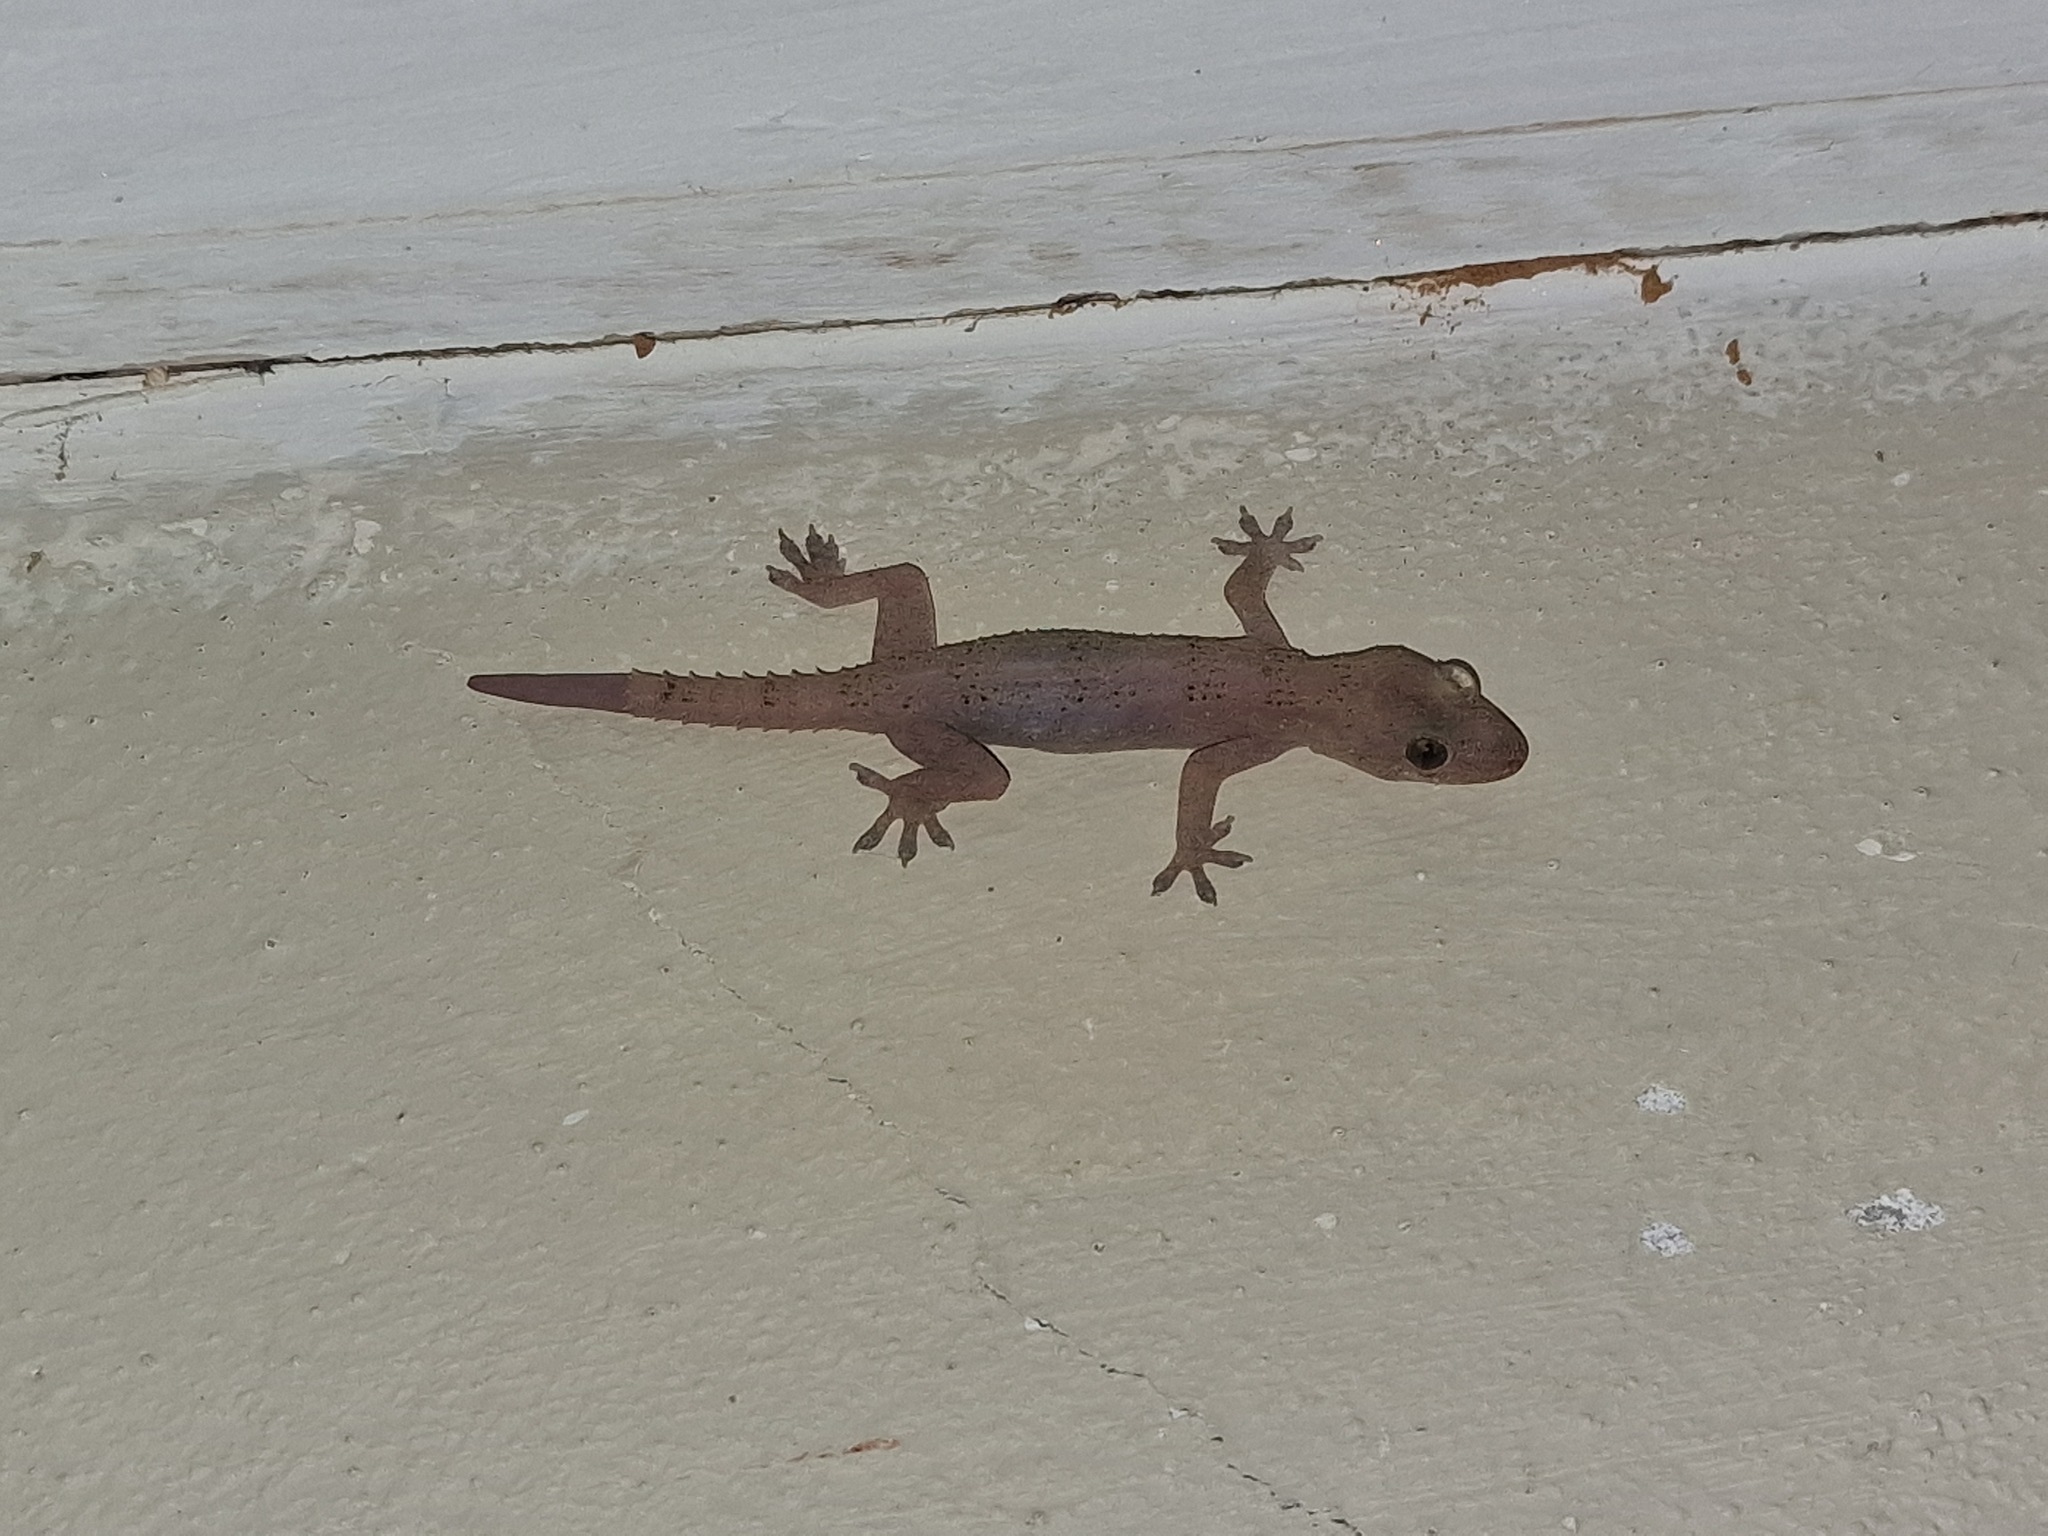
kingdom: Animalia
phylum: Chordata
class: Squamata
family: Gekkonidae
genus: Hemidactylus
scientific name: Hemidactylus mabouia
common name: House gecko
